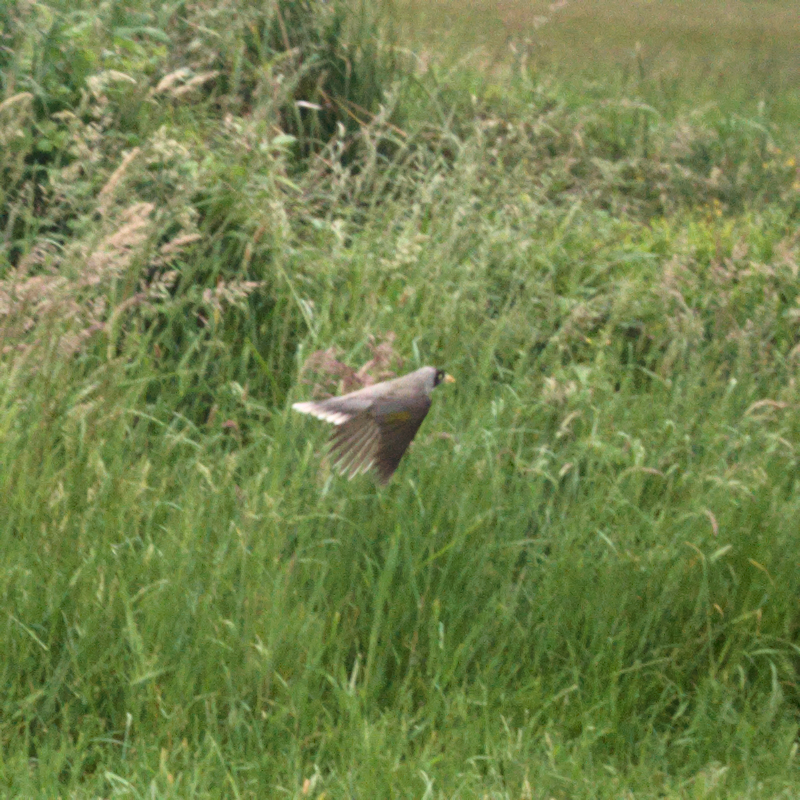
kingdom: Animalia
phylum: Chordata
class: Aves
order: Passeriformes
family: Meliphagidae
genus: Manorina
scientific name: Manorina melanocephala
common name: Noisy miner
